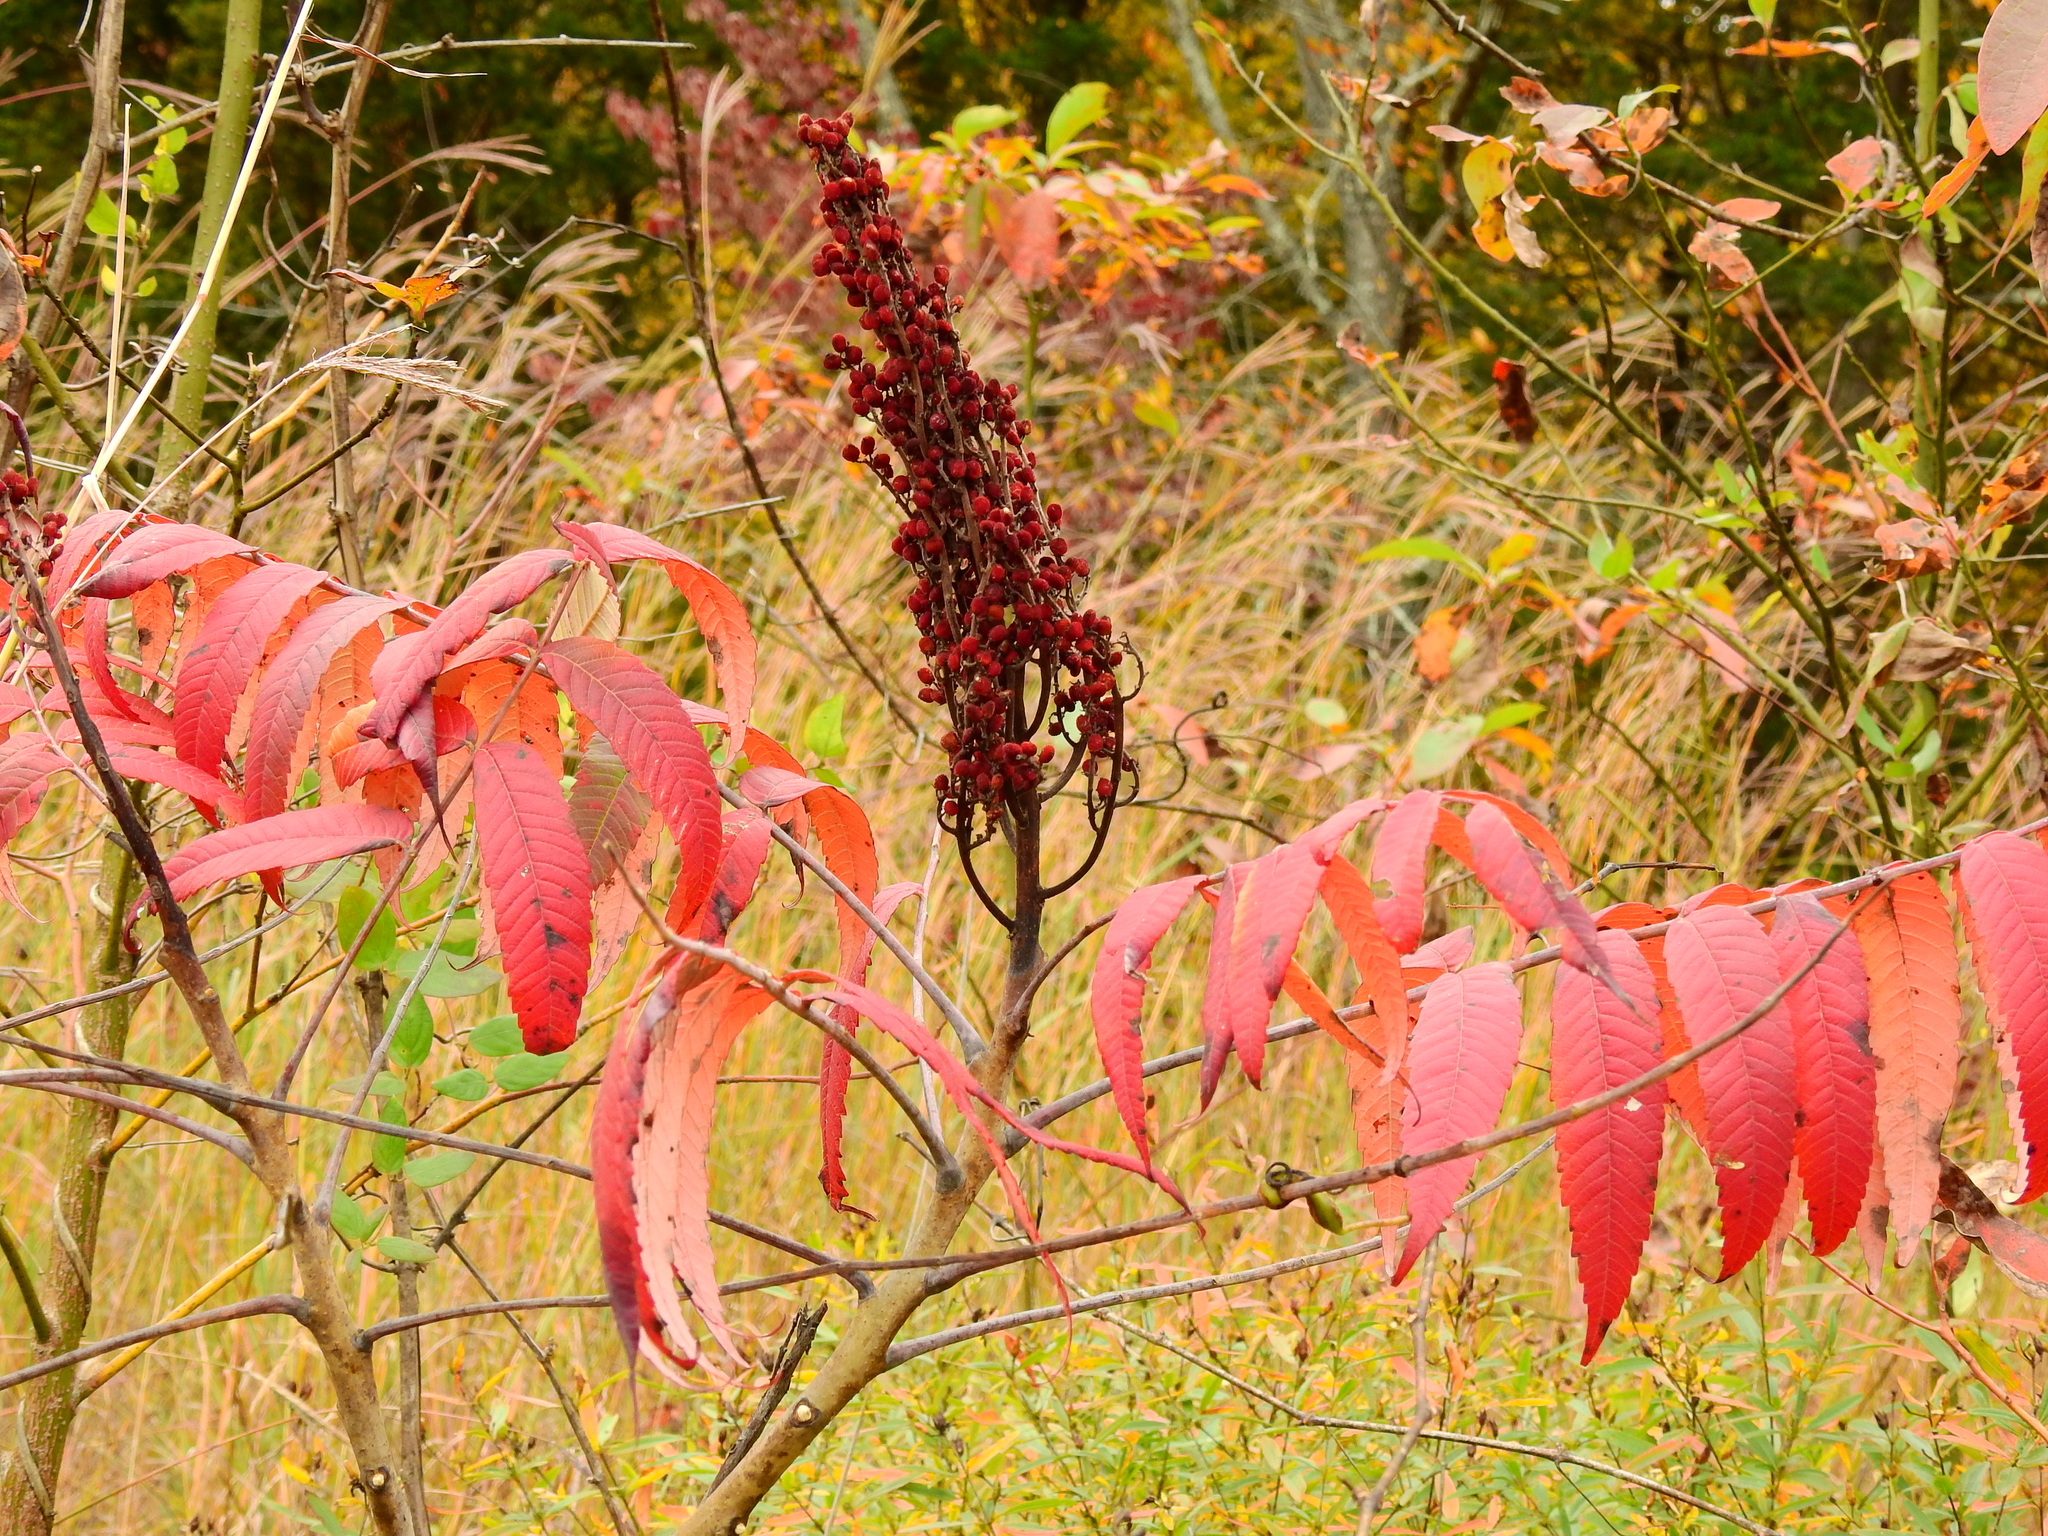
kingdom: Plantae
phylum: Tracheophyta
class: Magnoliopsida
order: Sapindales
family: Anacardiaceae
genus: Rhus
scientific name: Rhus glabra
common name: Scarlet sumac
